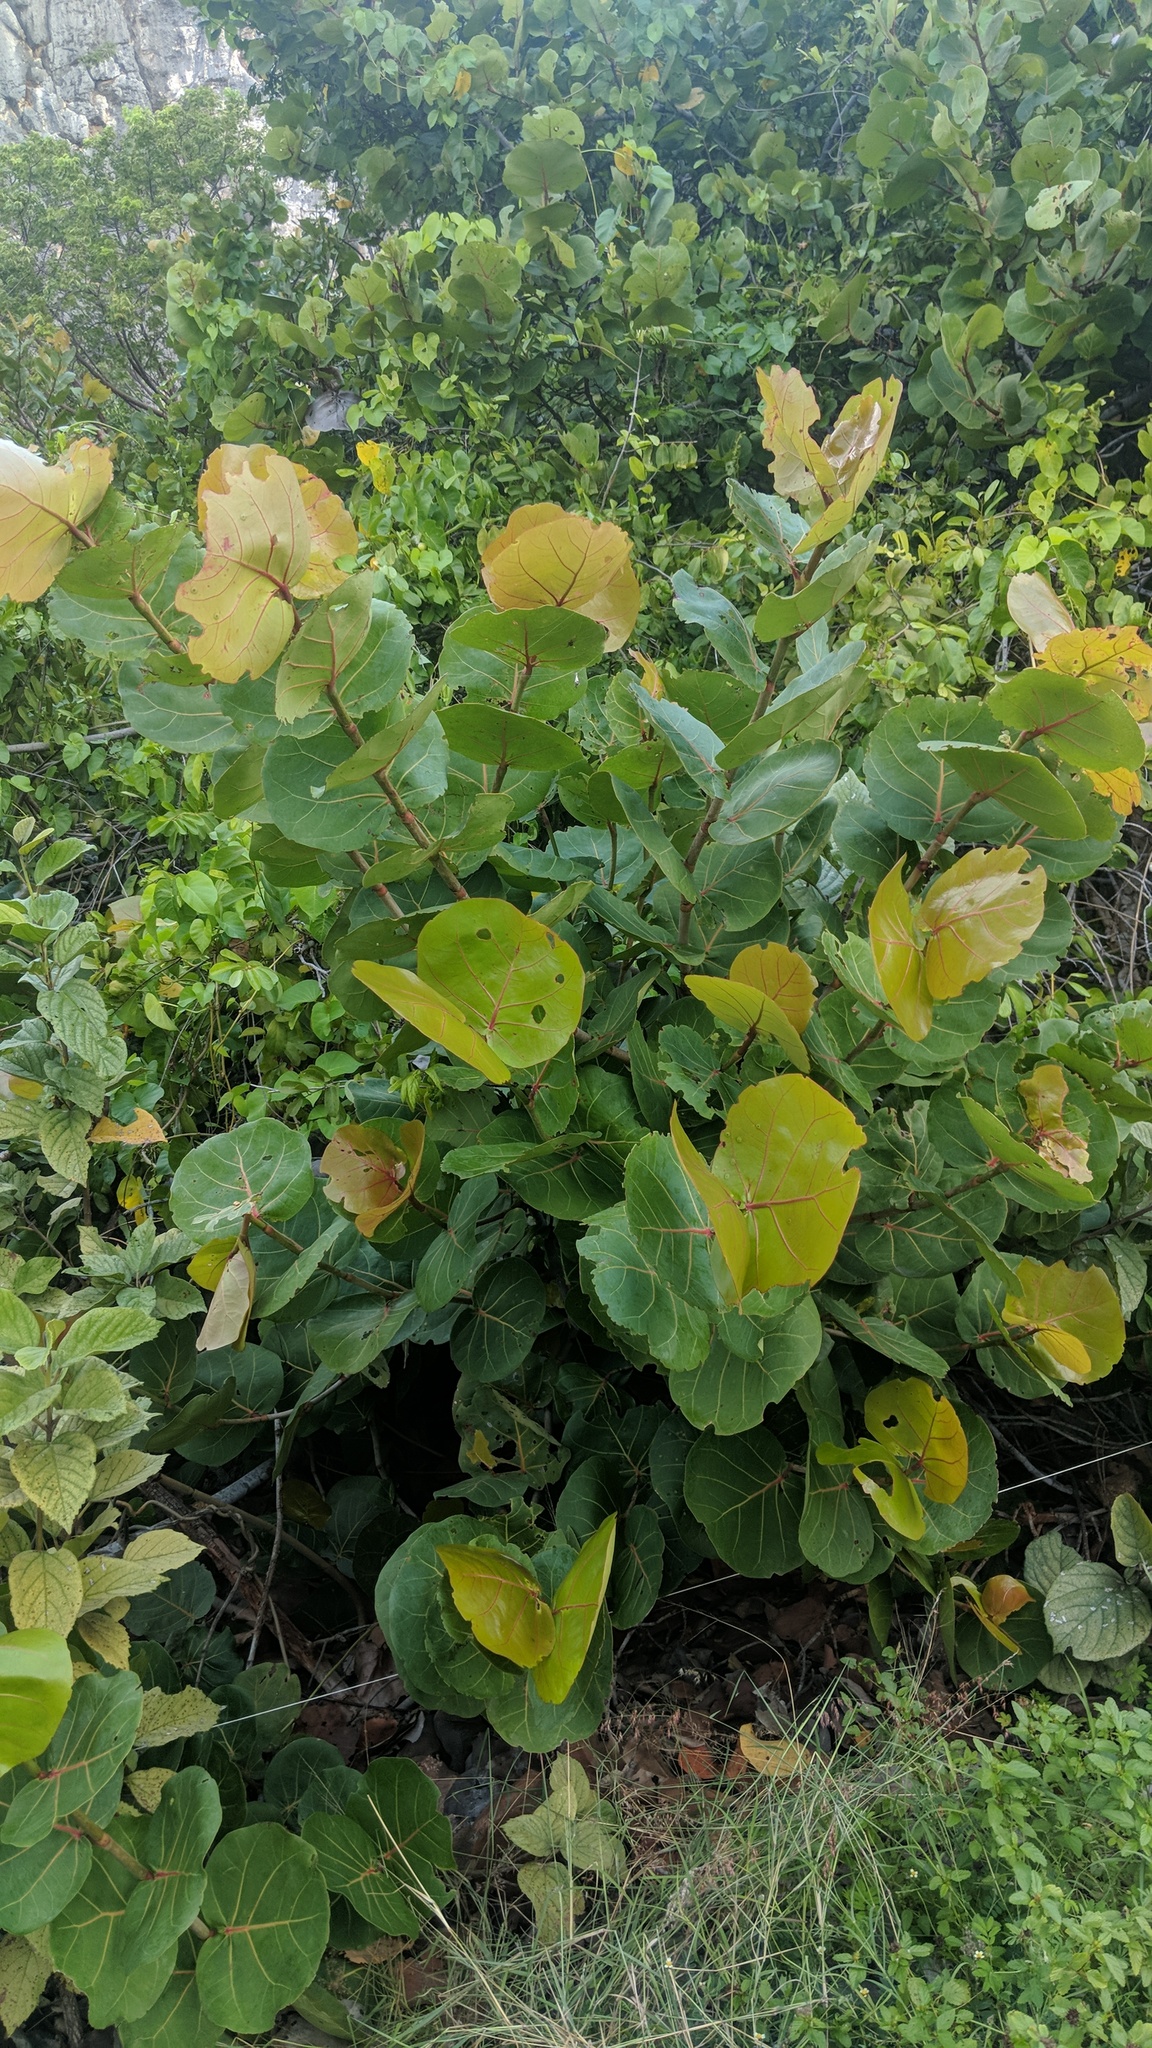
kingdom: Plantae
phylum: Tracheophyta
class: Magnoliopsida
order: Caryophyllales
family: Polygonaceae
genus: Coccoloba
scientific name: Coccoloba uvifera
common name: Seagrape
